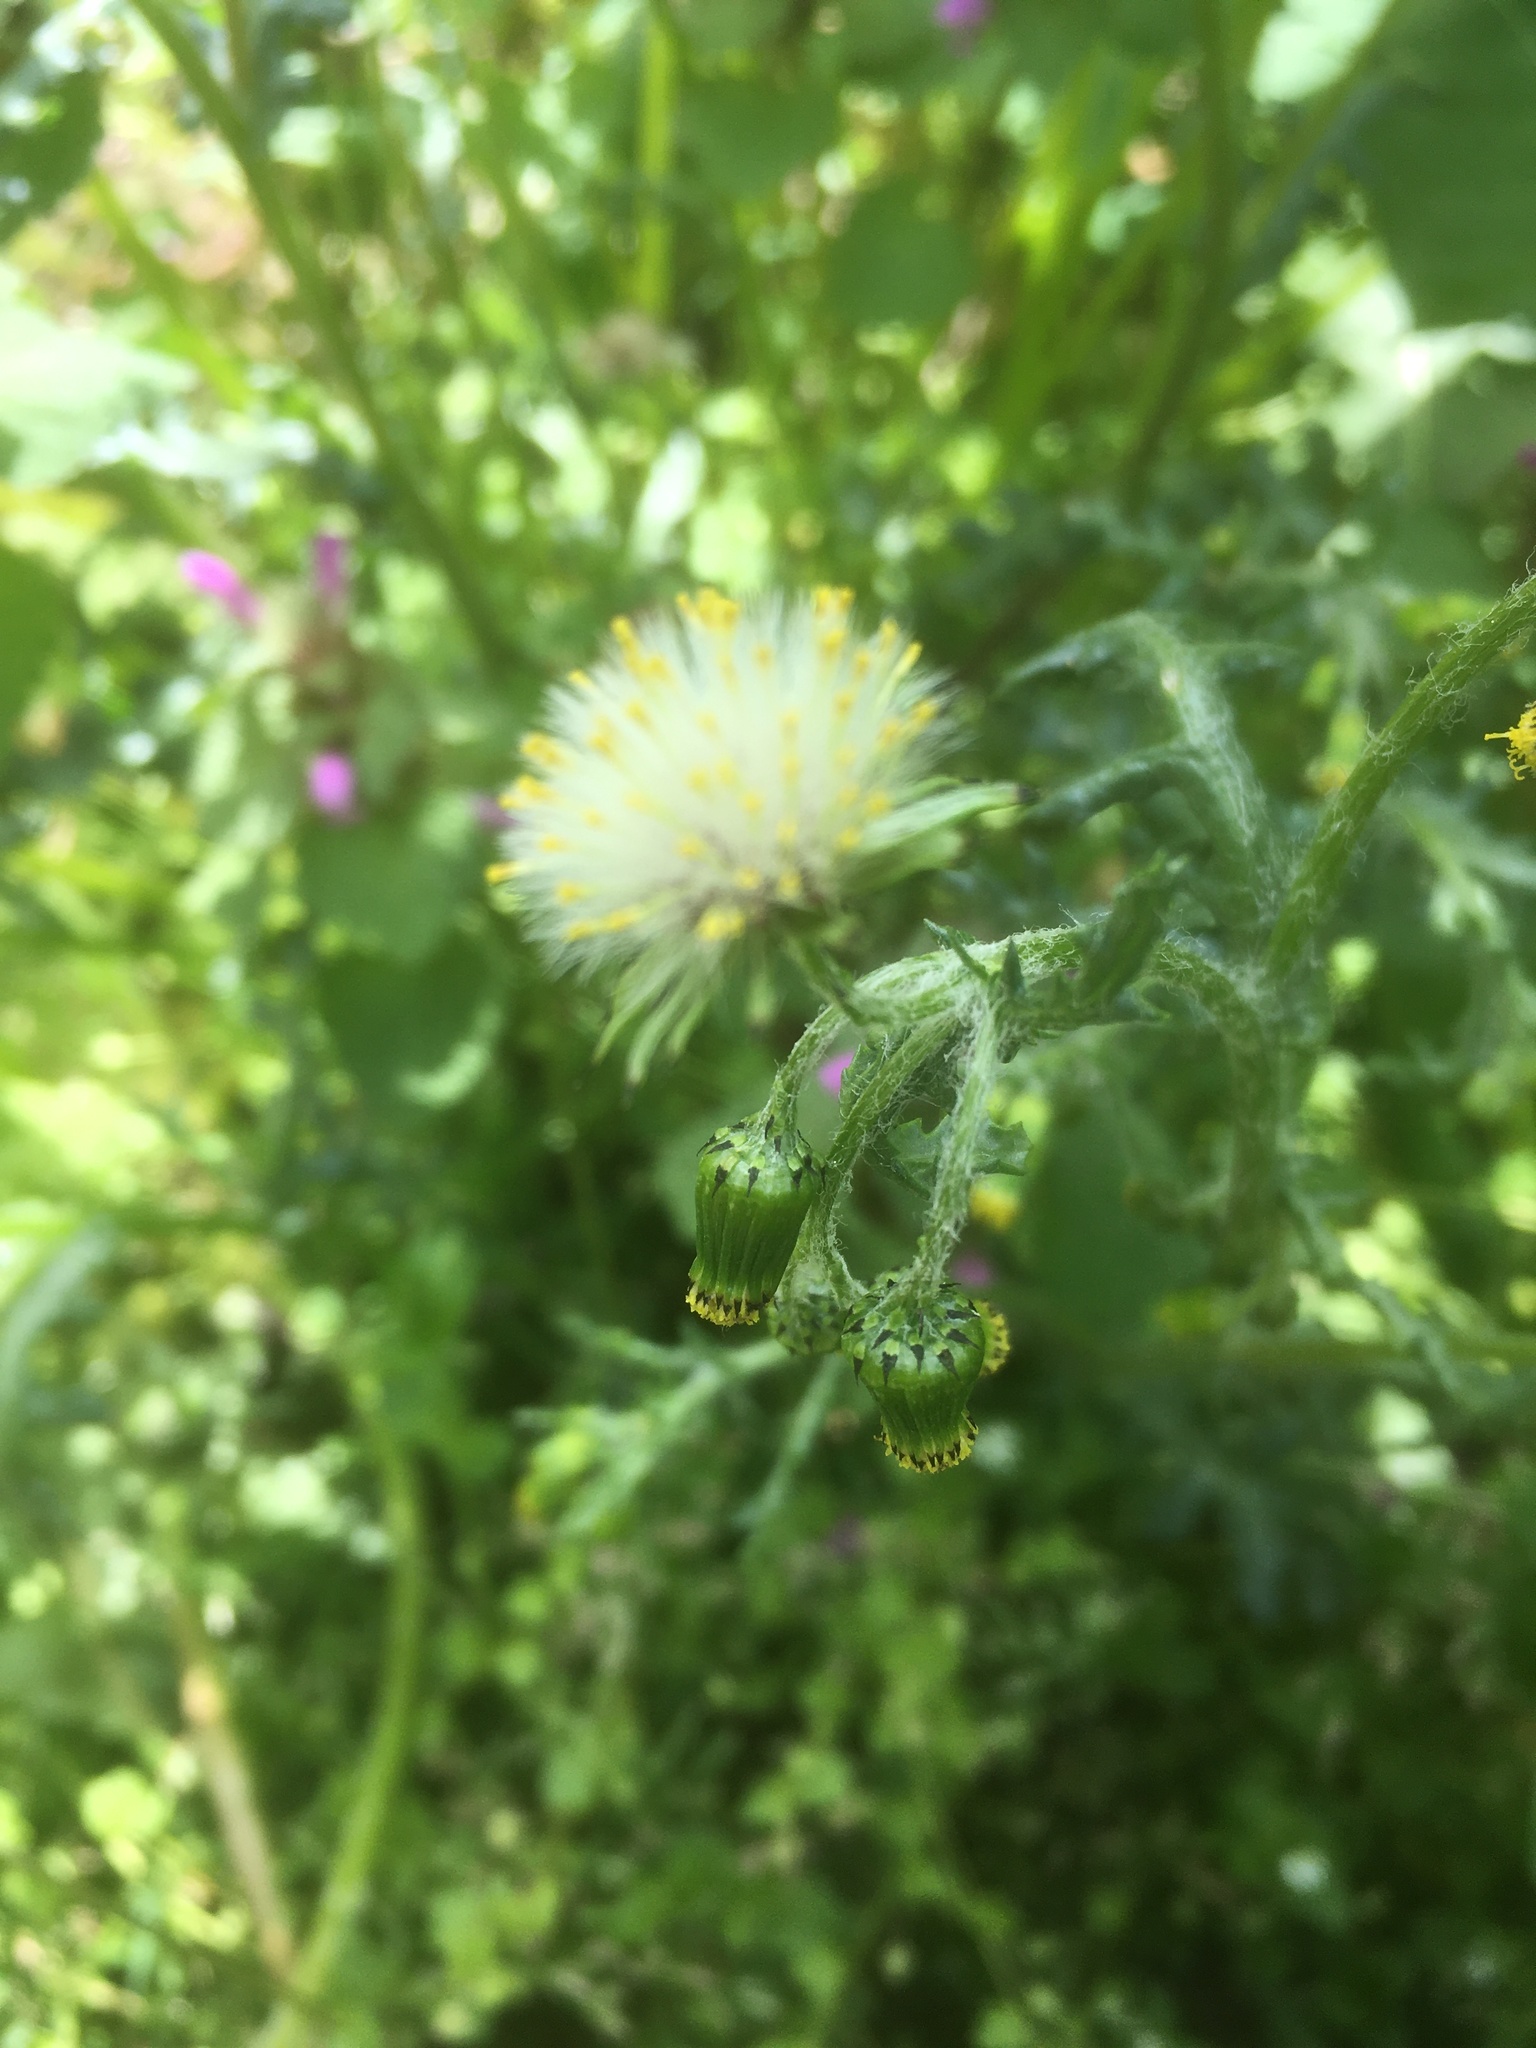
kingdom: Plantae
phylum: Tracheophyta
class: Magnoliopsida
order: Asterales
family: Asteraceae
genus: Senecio
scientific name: Senecio vulgaris
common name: Old-man-in-the-spring
